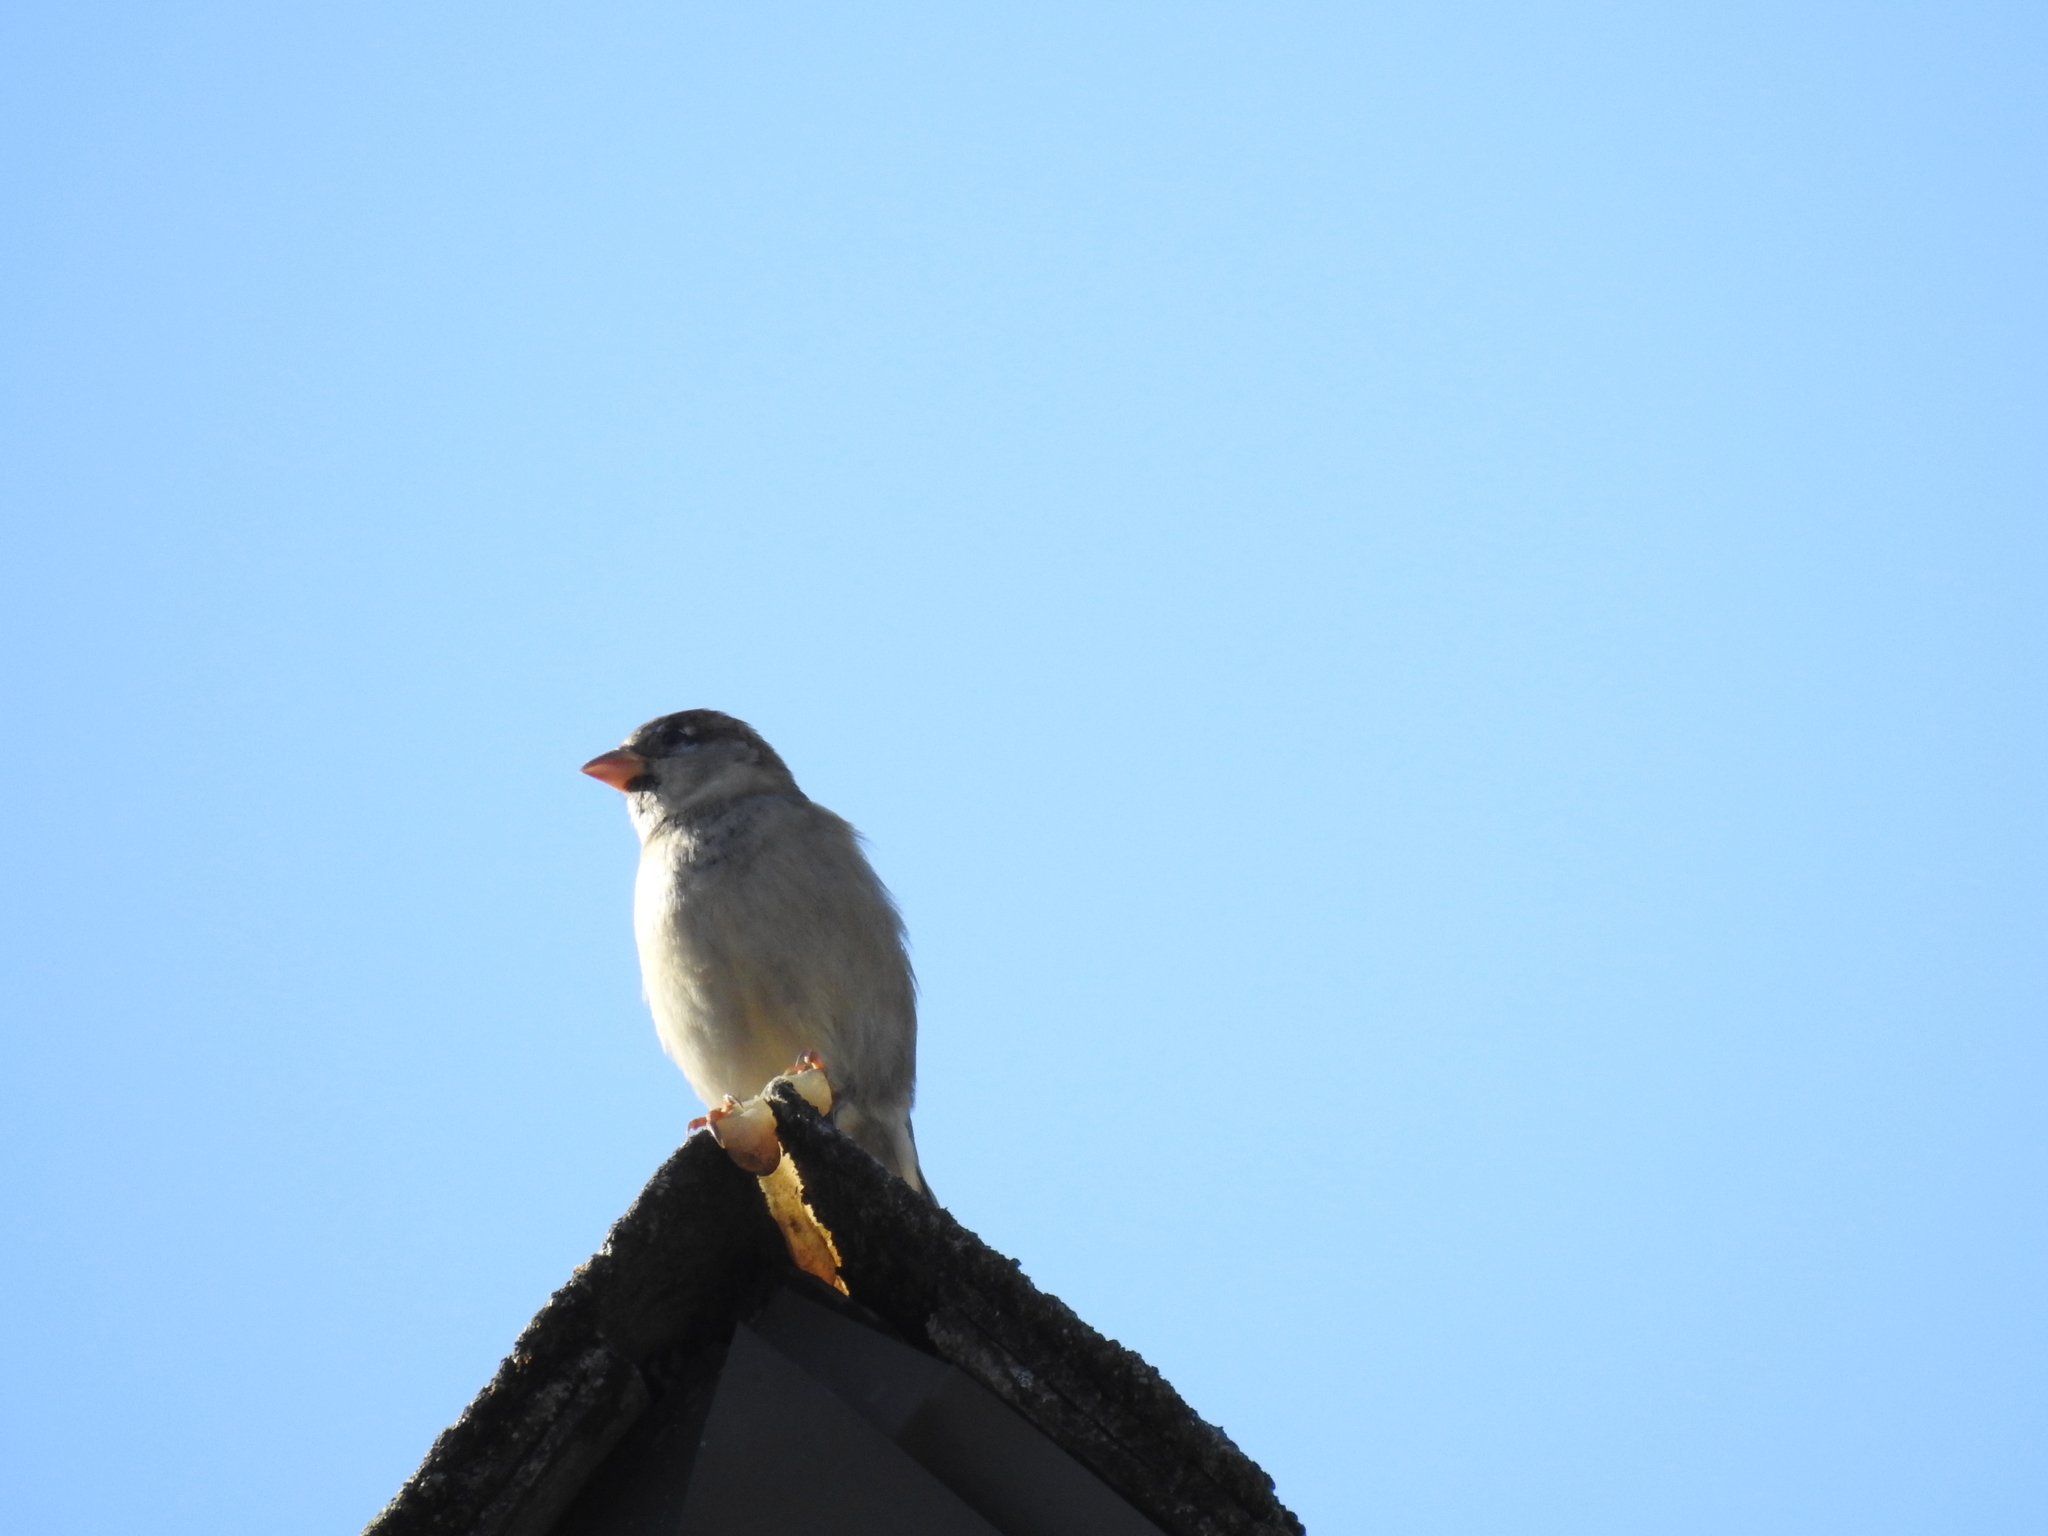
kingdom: Animalia
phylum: Chordata
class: Aves
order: Passeriformes
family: Passeridae
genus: Passer
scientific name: Passer domesticus
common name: House sparrow
